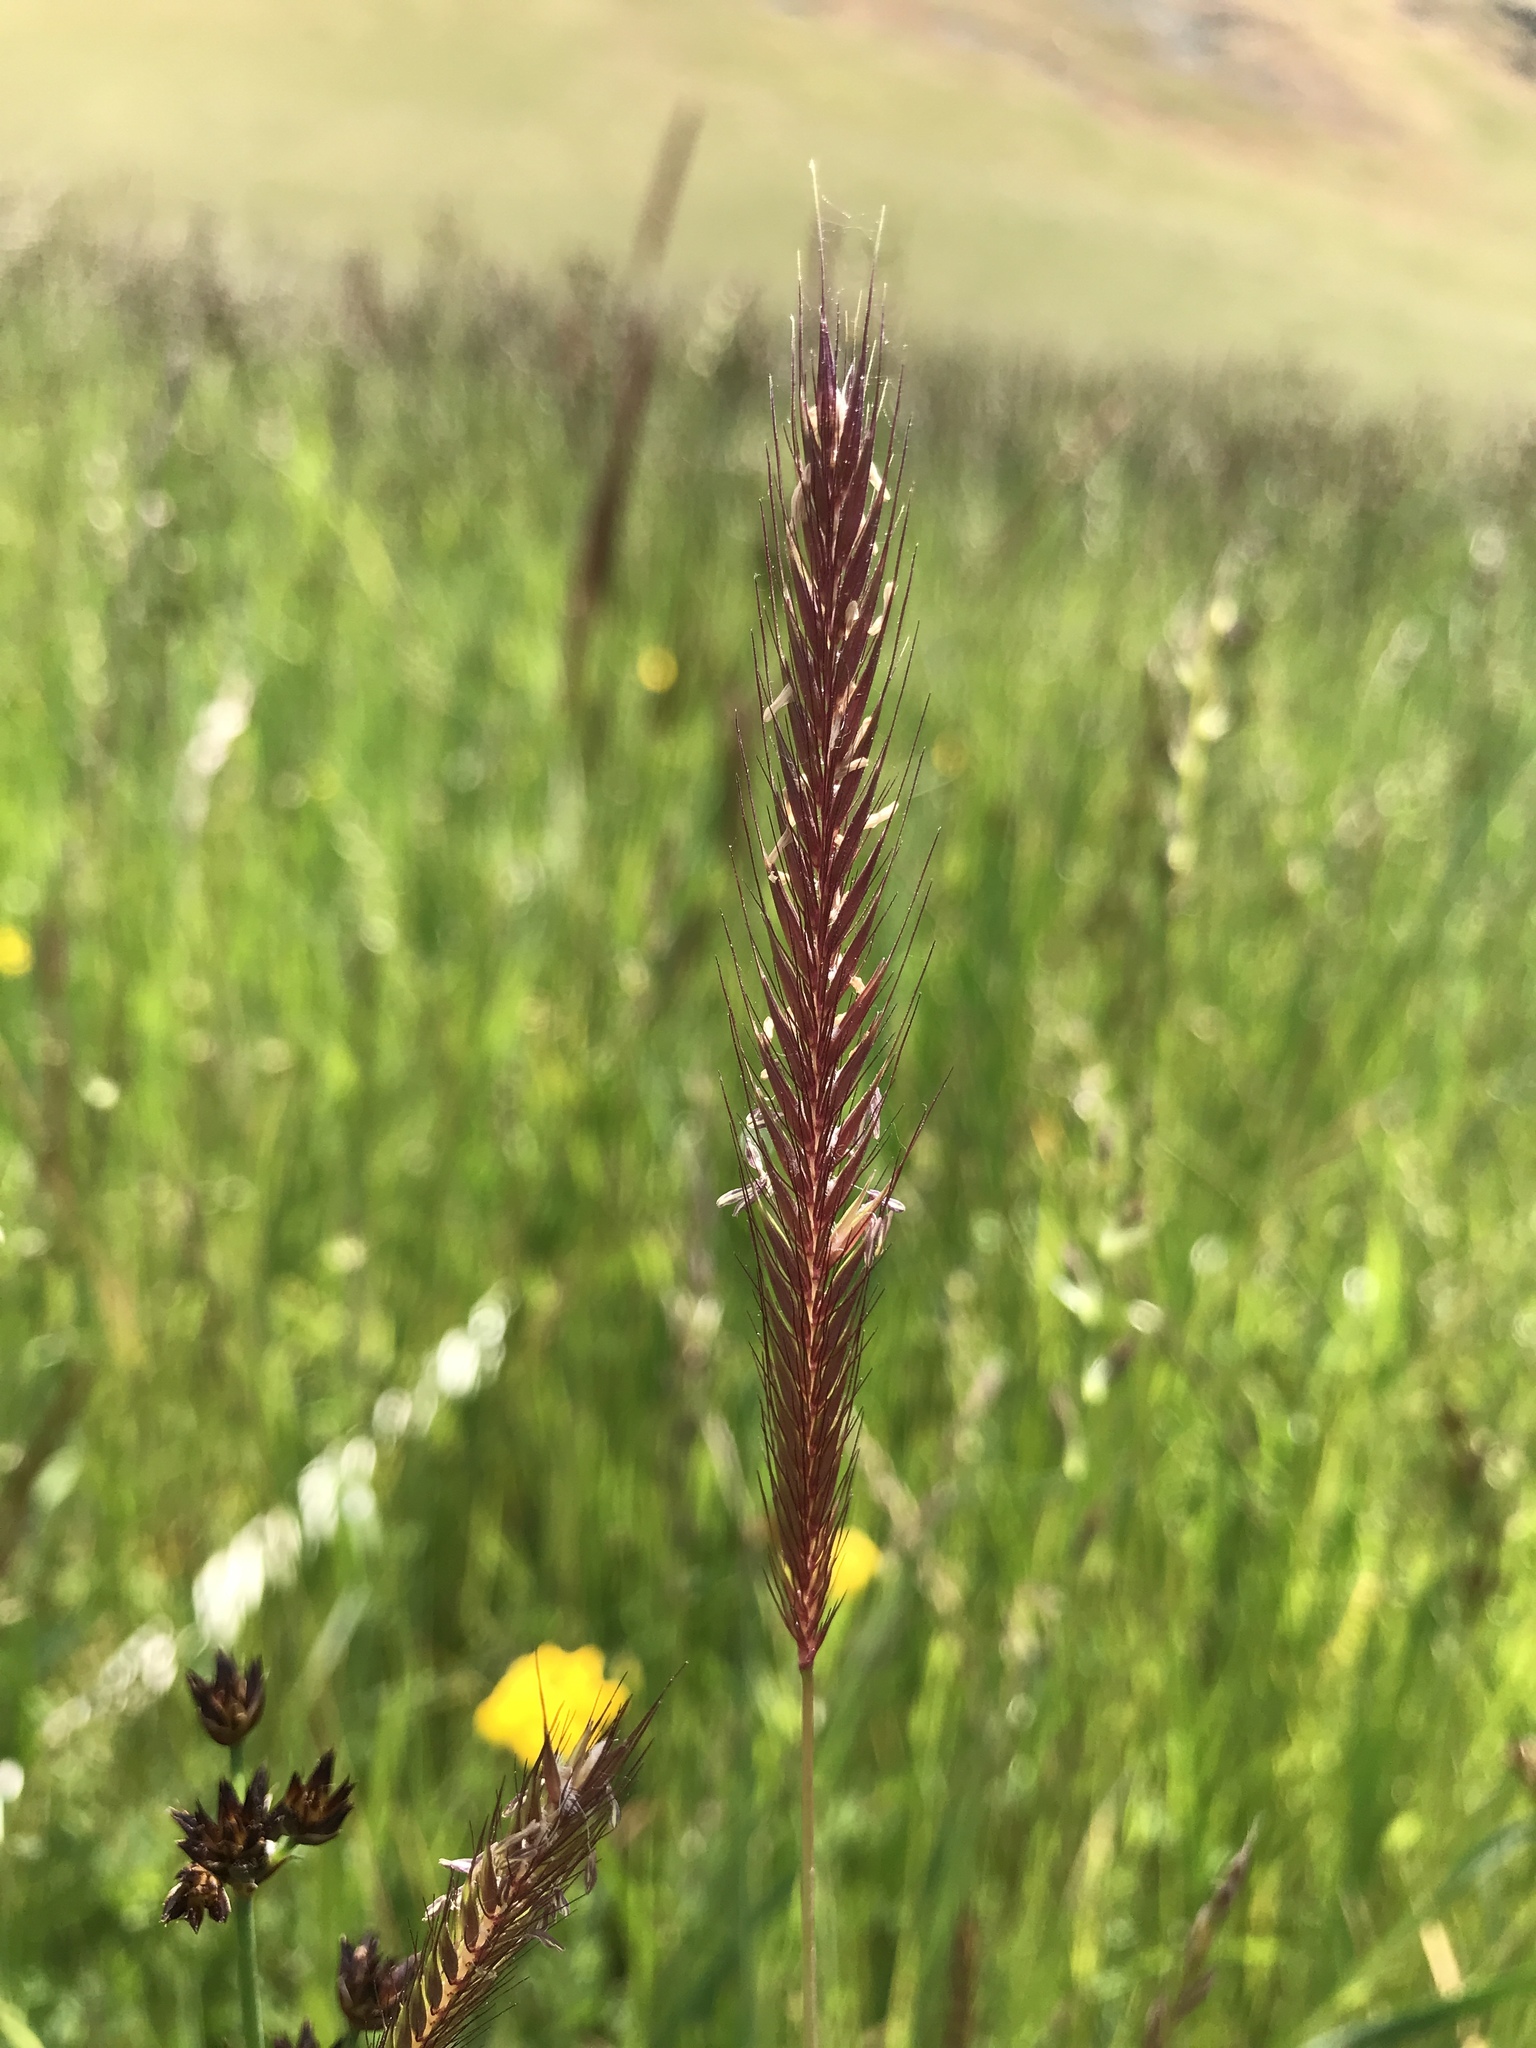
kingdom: Plantae
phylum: Tracheophyta
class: Liliopsida
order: Poales
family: Poaceae
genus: Hordeum
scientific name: Hordeum brachyantherum
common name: Meadow barley
